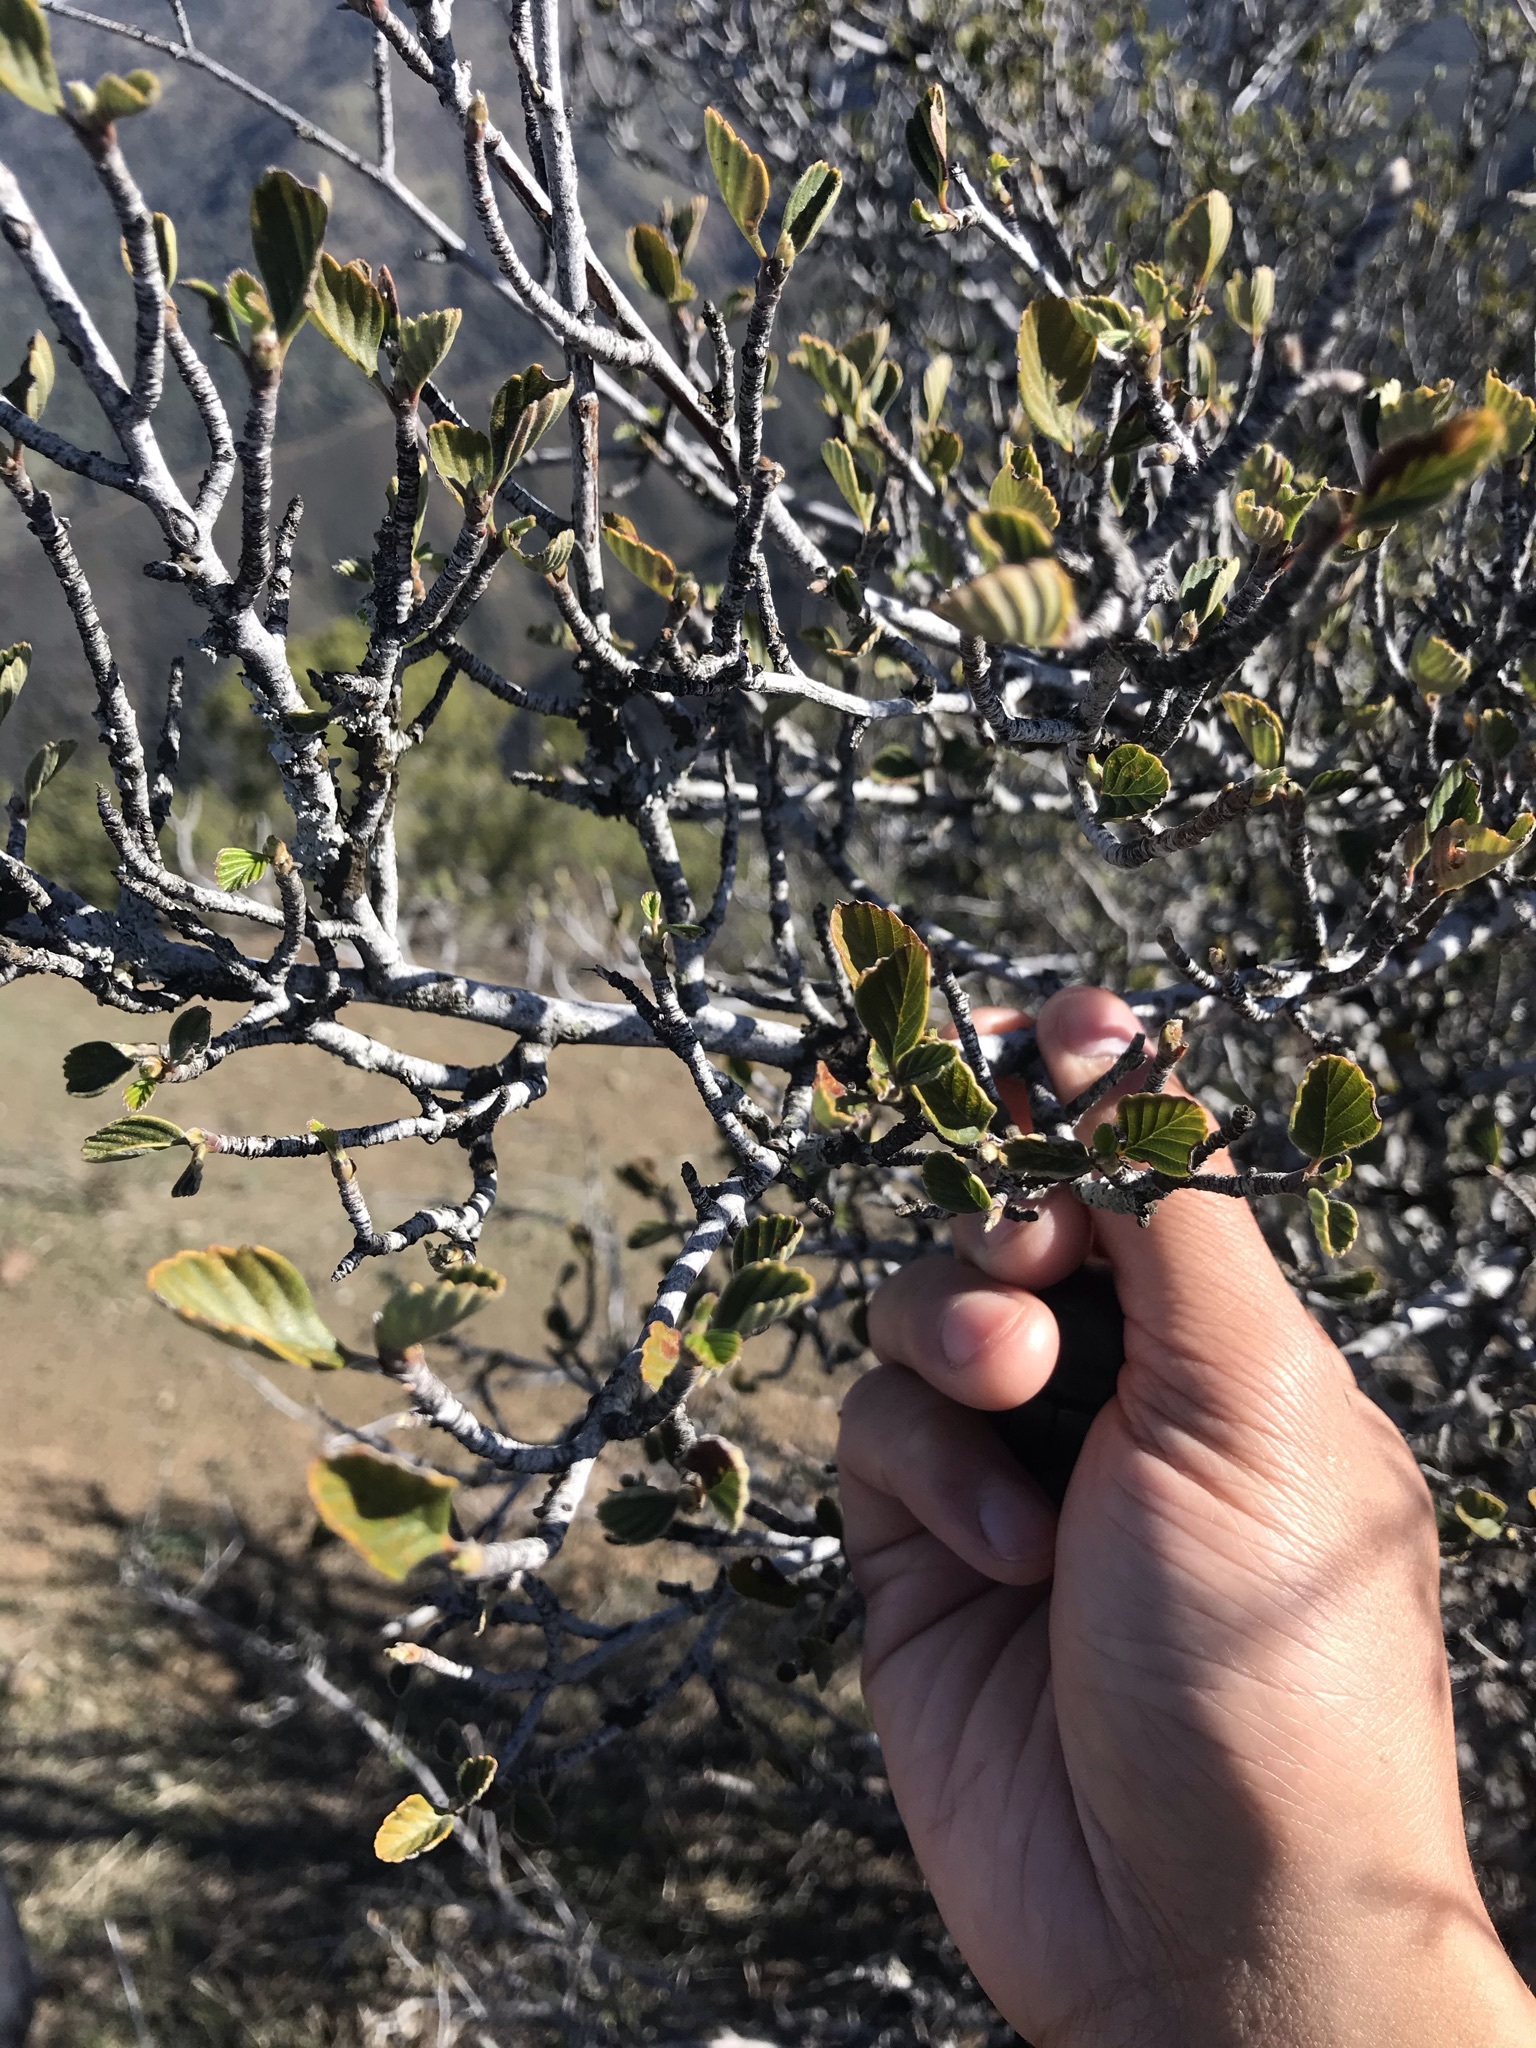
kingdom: Plantae
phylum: Tracheophyta
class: Magnoliopsida
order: Rosales
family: Rosaceae
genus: Cercocarpus
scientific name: Cercocarpus betuloides
